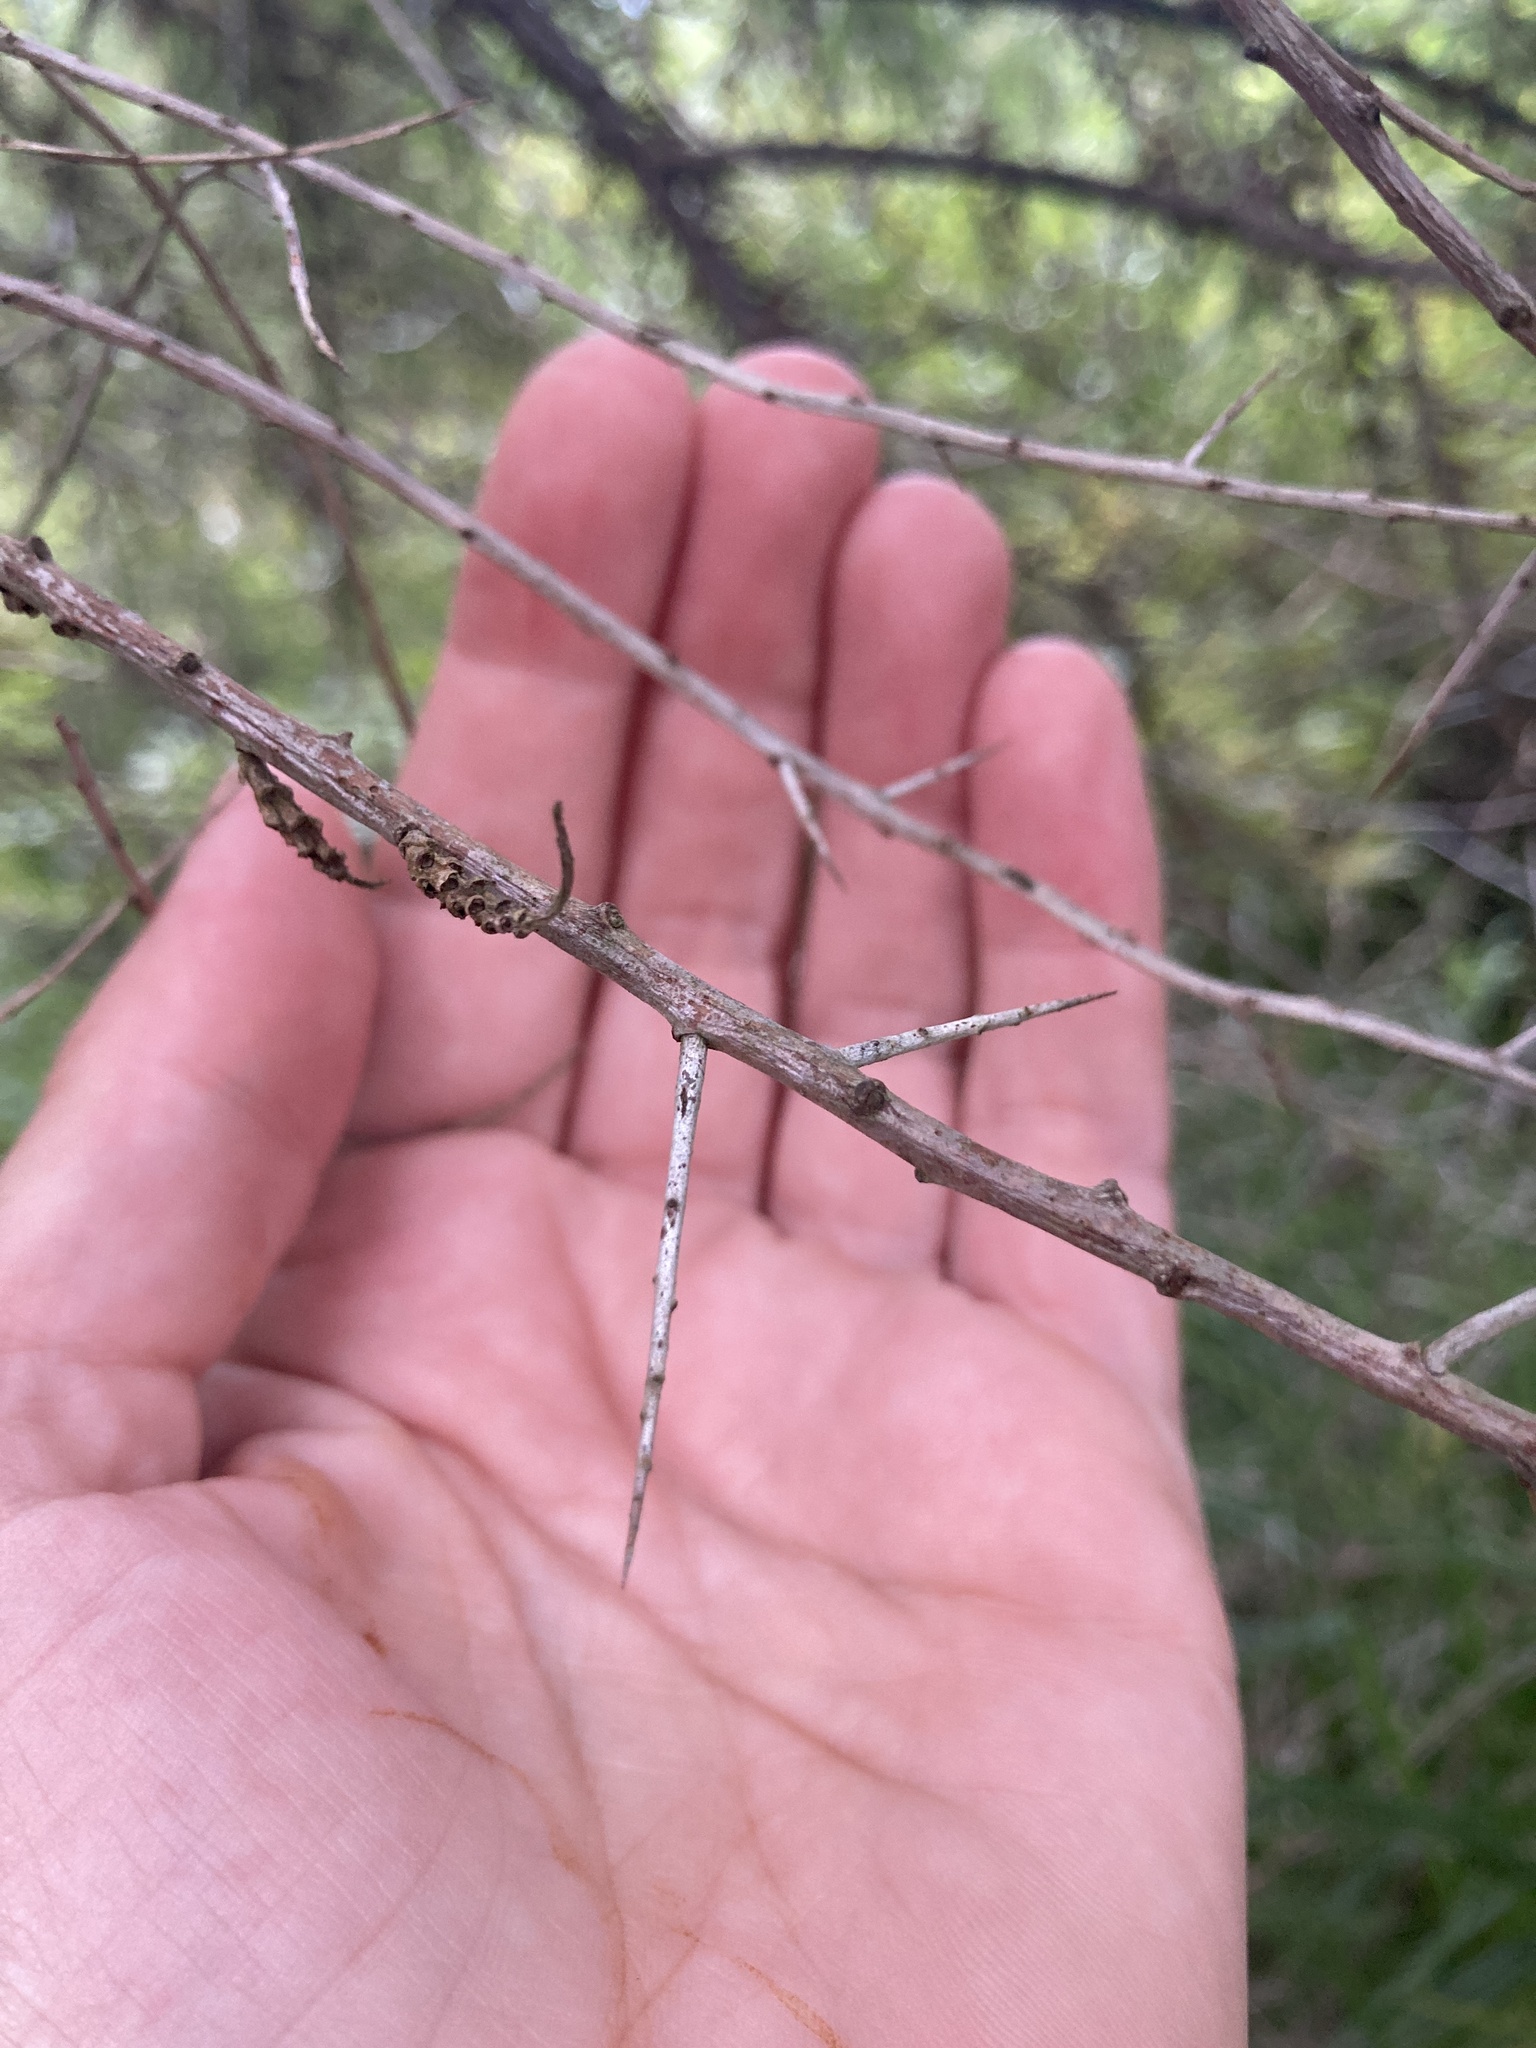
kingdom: Plantae
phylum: Tracheophyta
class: Magnoliopsida
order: Rosales
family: Elaeagnaceae
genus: Hippophae
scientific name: Hippophae rhamnoides
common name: Sea-buckthorn
